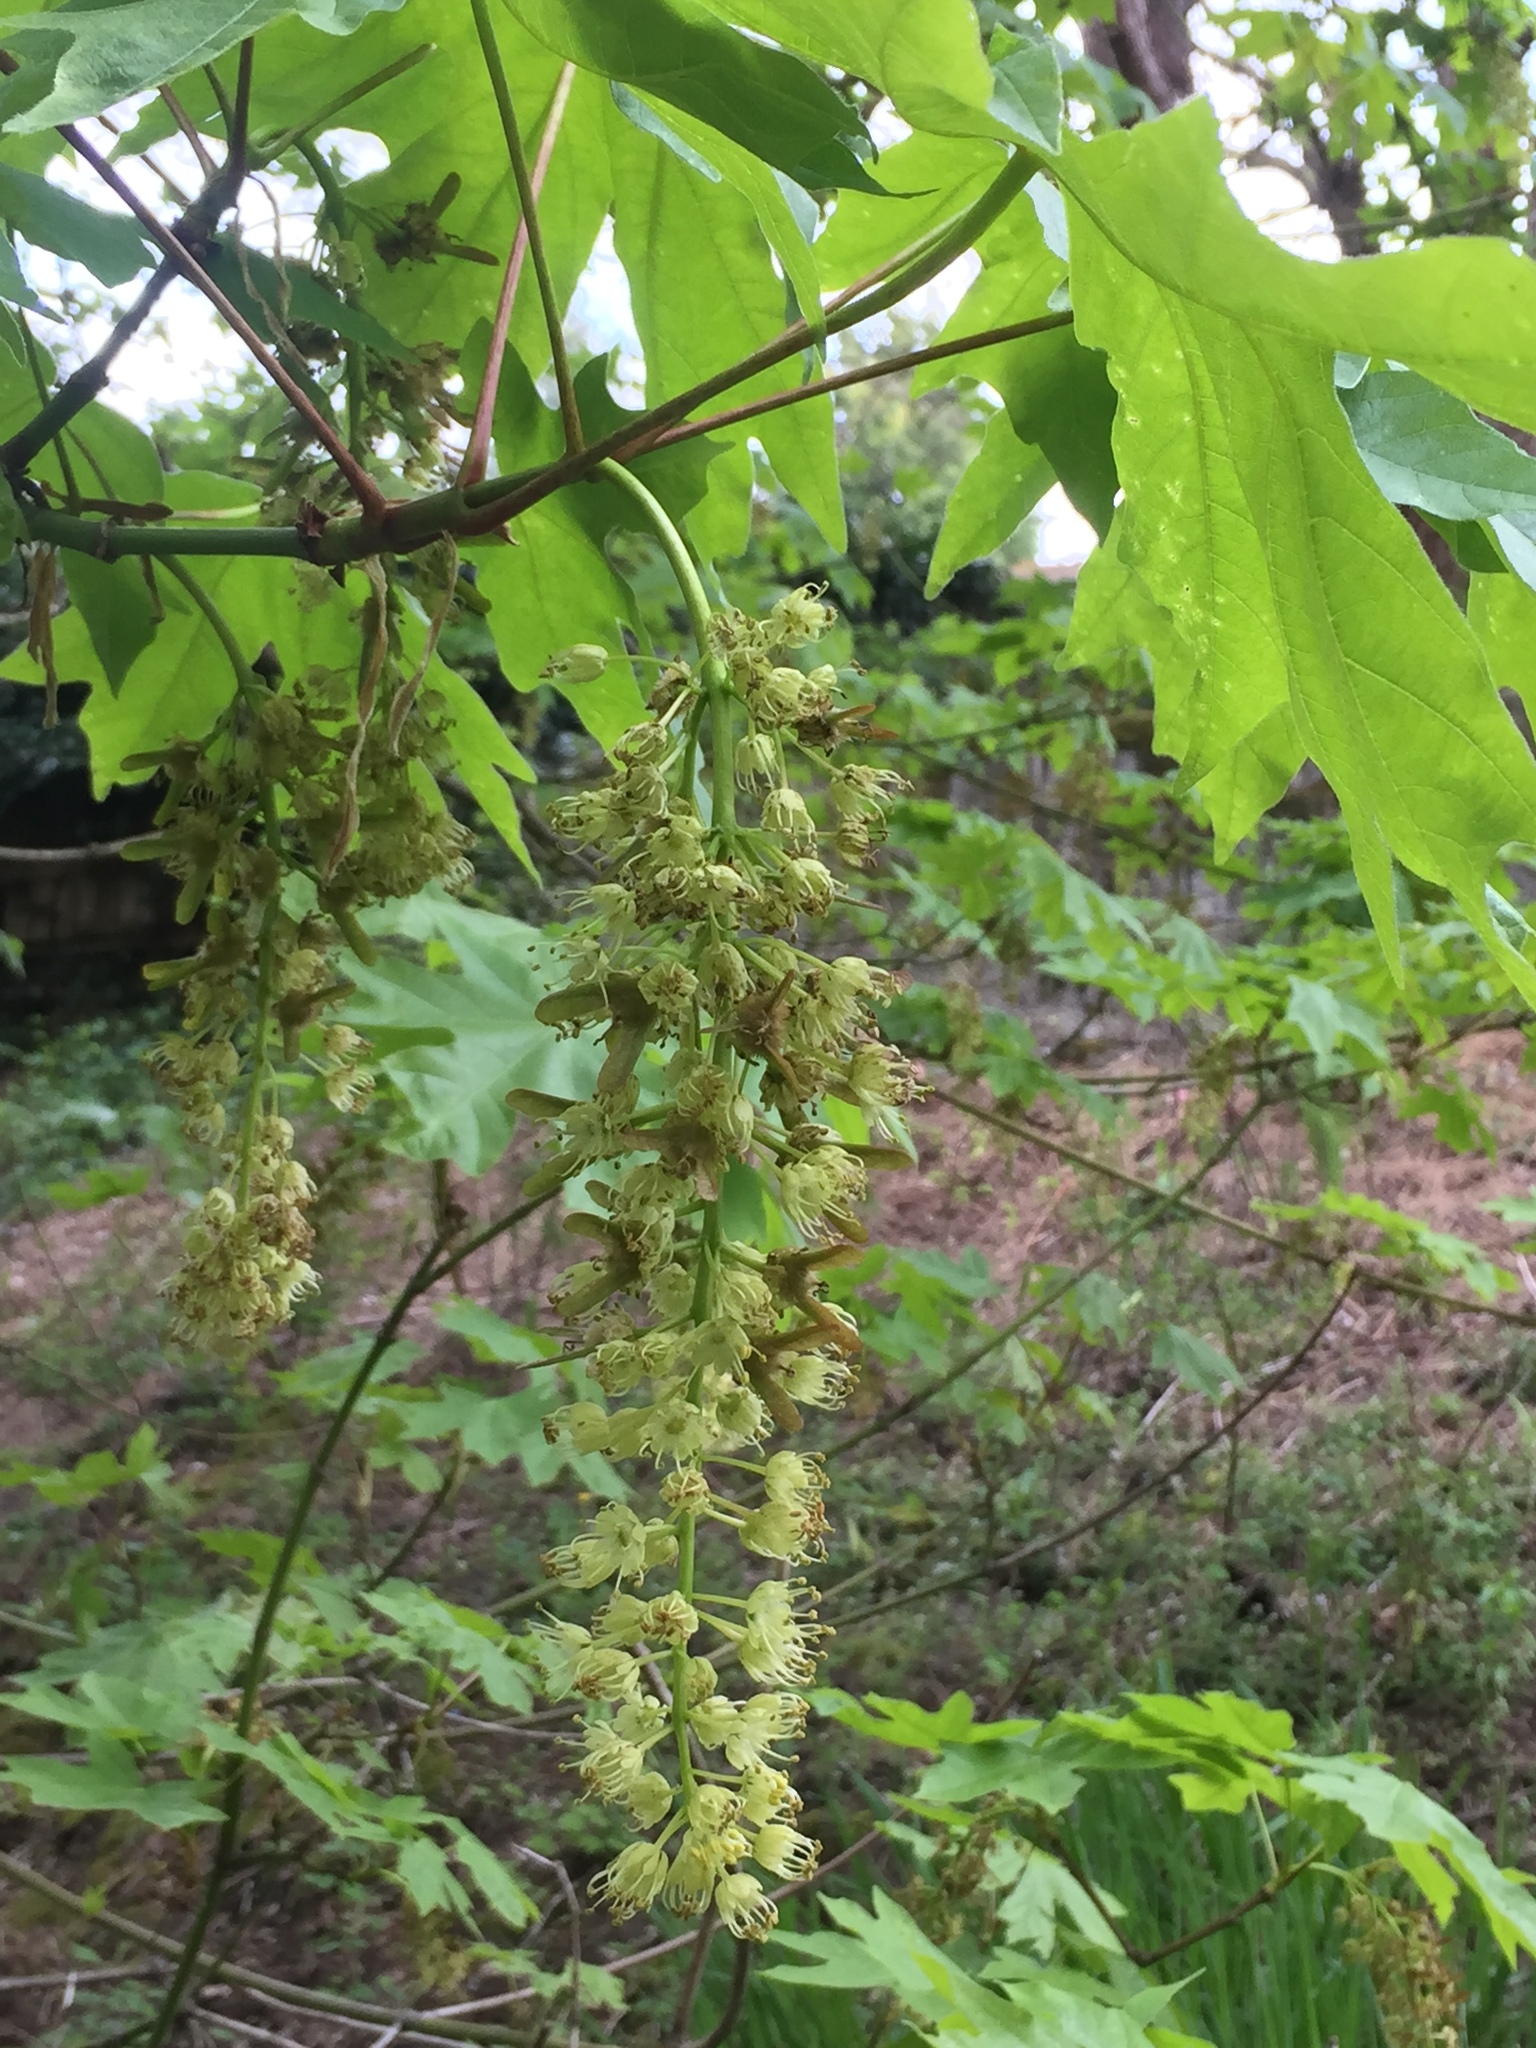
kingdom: Plantae
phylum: Tracheophyta
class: Magnoliopsida
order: Sapindales
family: Sapindaceae
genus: Acer
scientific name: Acer macrophyllum
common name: Oregon maple
